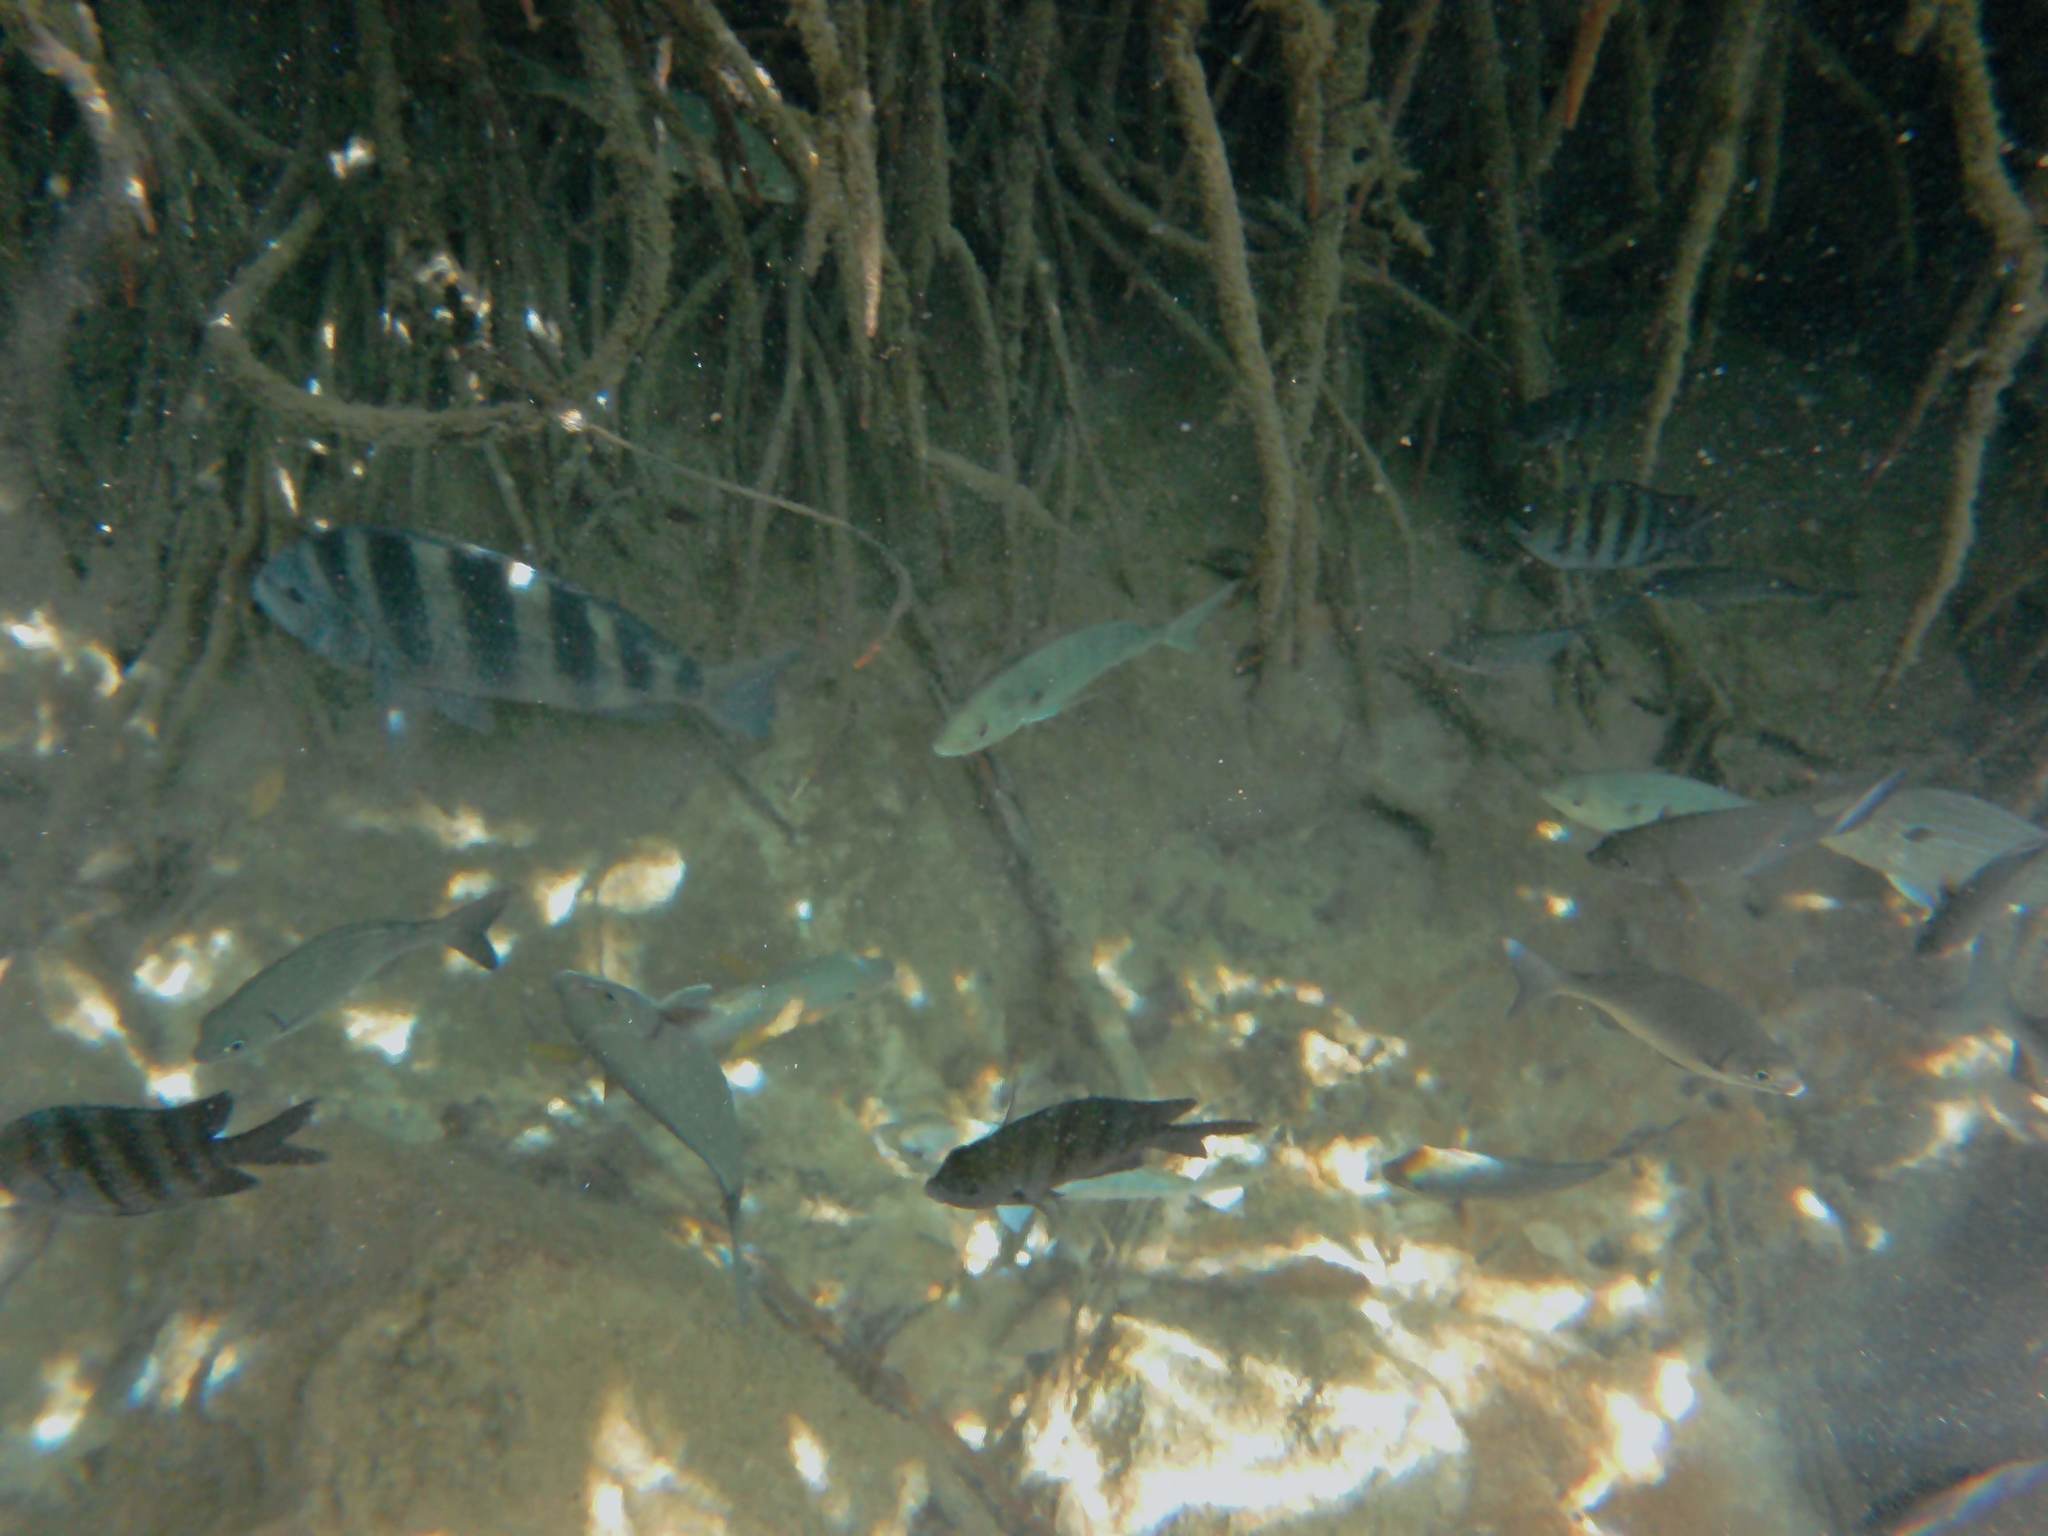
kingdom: Animalia
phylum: Chordata
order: Perciformes
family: Sparidae
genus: Archosargus
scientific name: Archosargus probatocephalus
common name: Sheepshead
